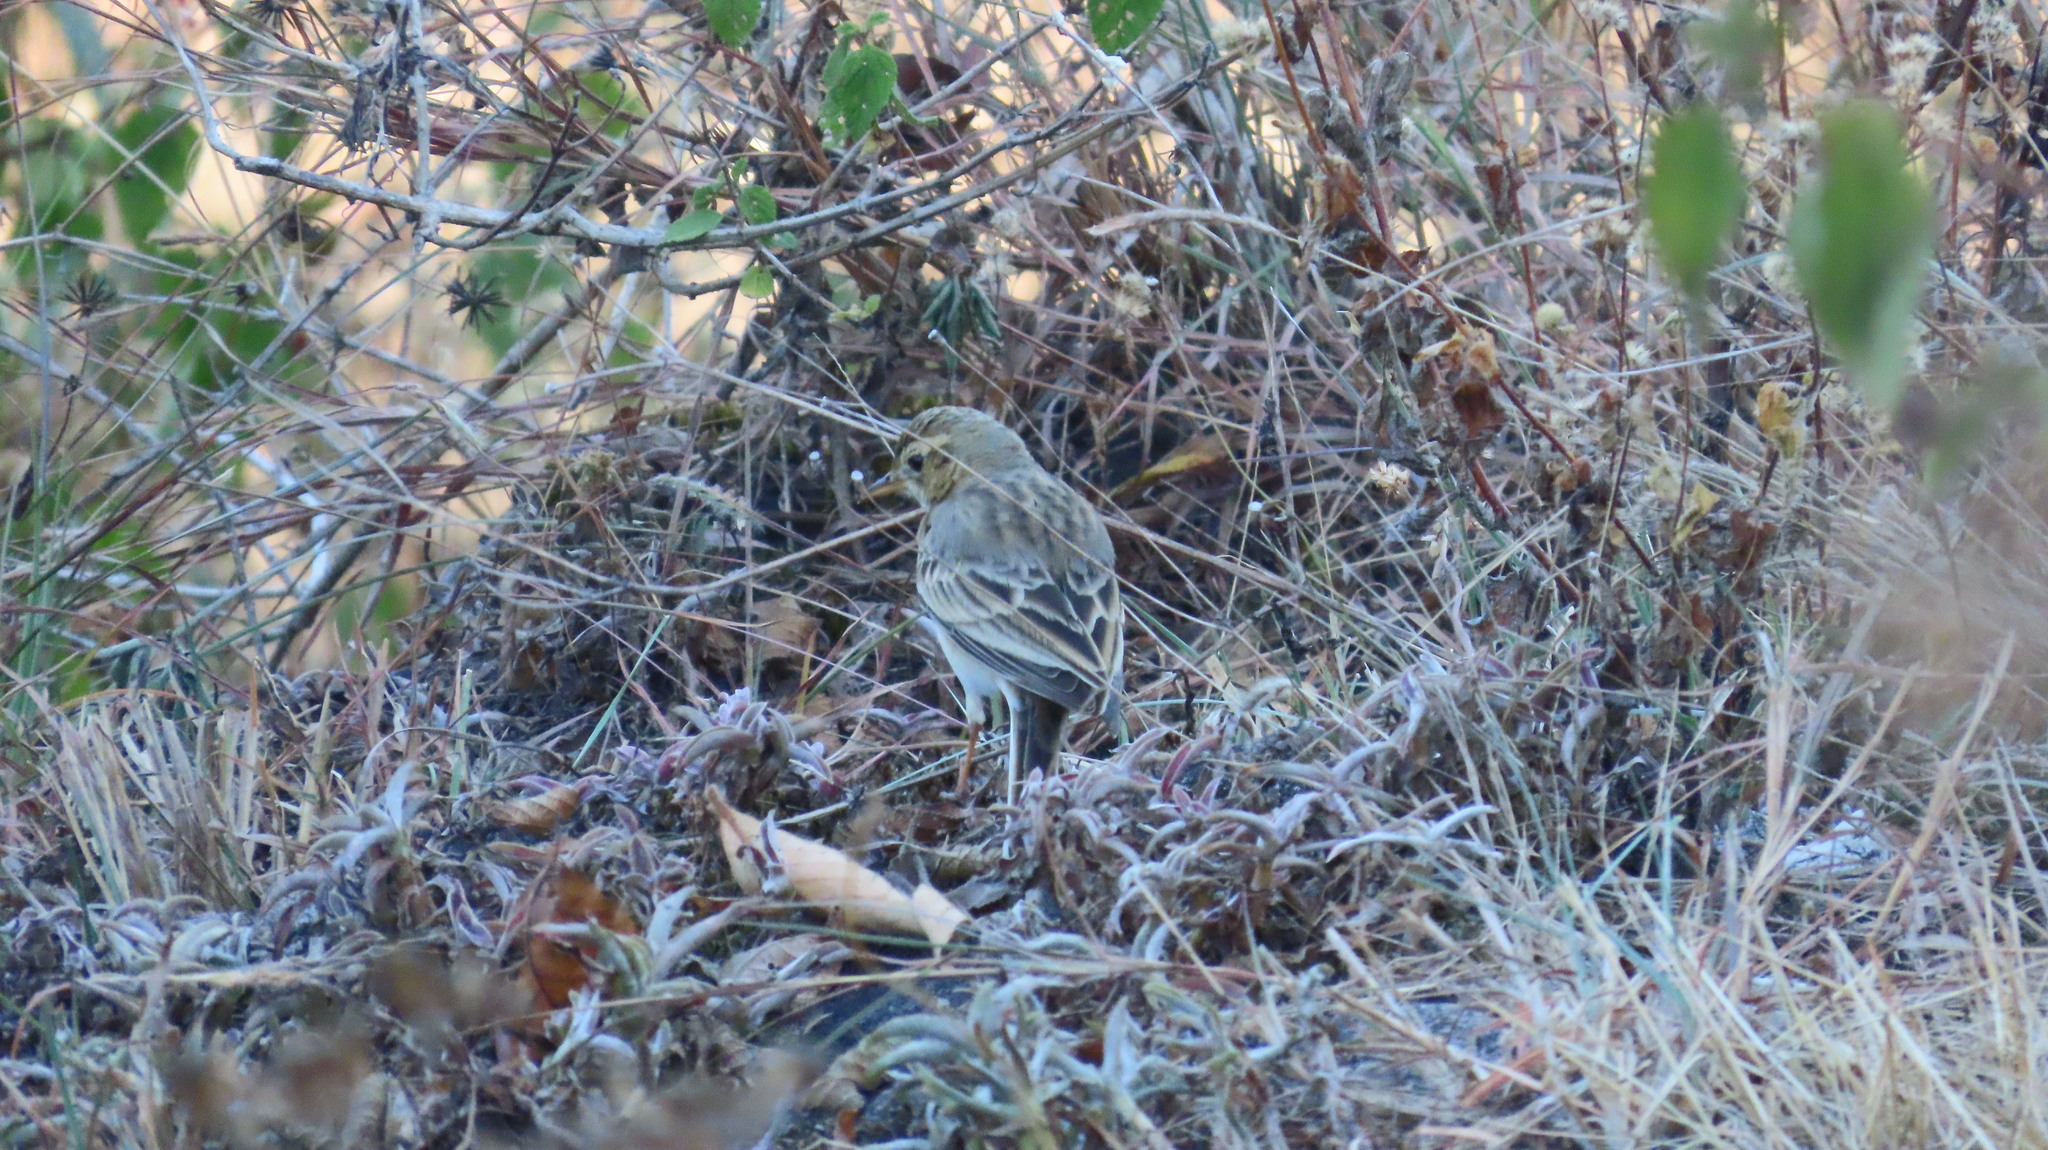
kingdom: Animalia
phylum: Chordata
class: Aves
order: Passeriformes
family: Motacillidae
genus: Anthus
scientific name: Anthus rufulus
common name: Paddyfield pipit
